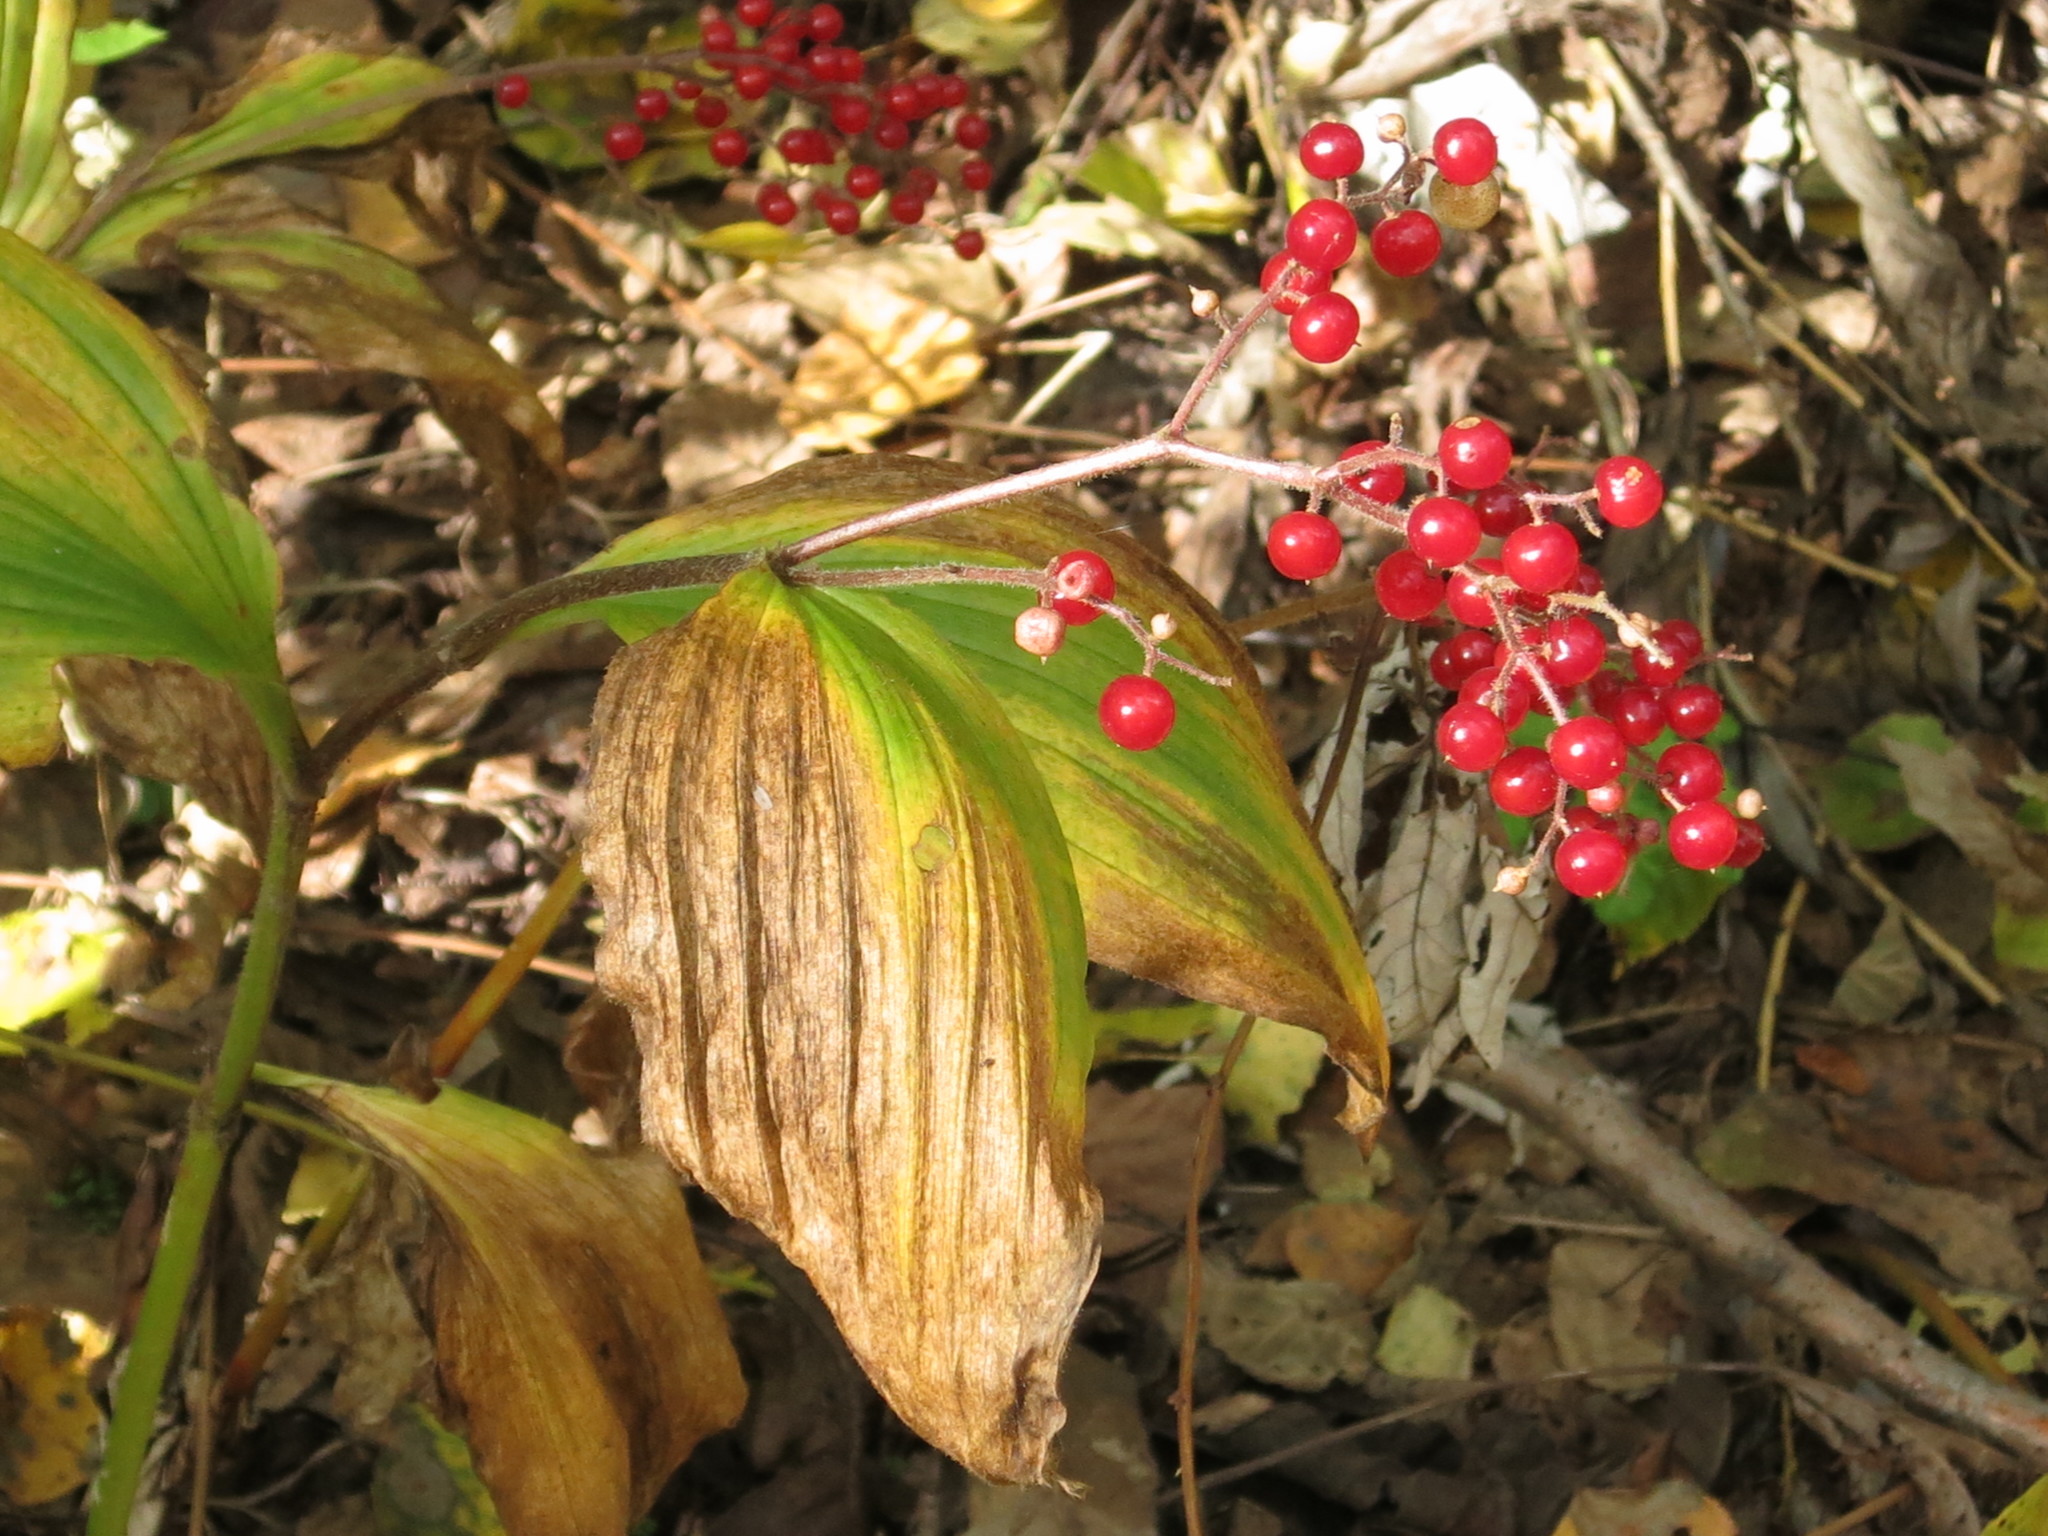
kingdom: Plantae
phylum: Tracheophyta
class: Liliopsida
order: Asparagales
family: Asparagaceae
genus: Maianthemum
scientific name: Maianthemum japonicum
